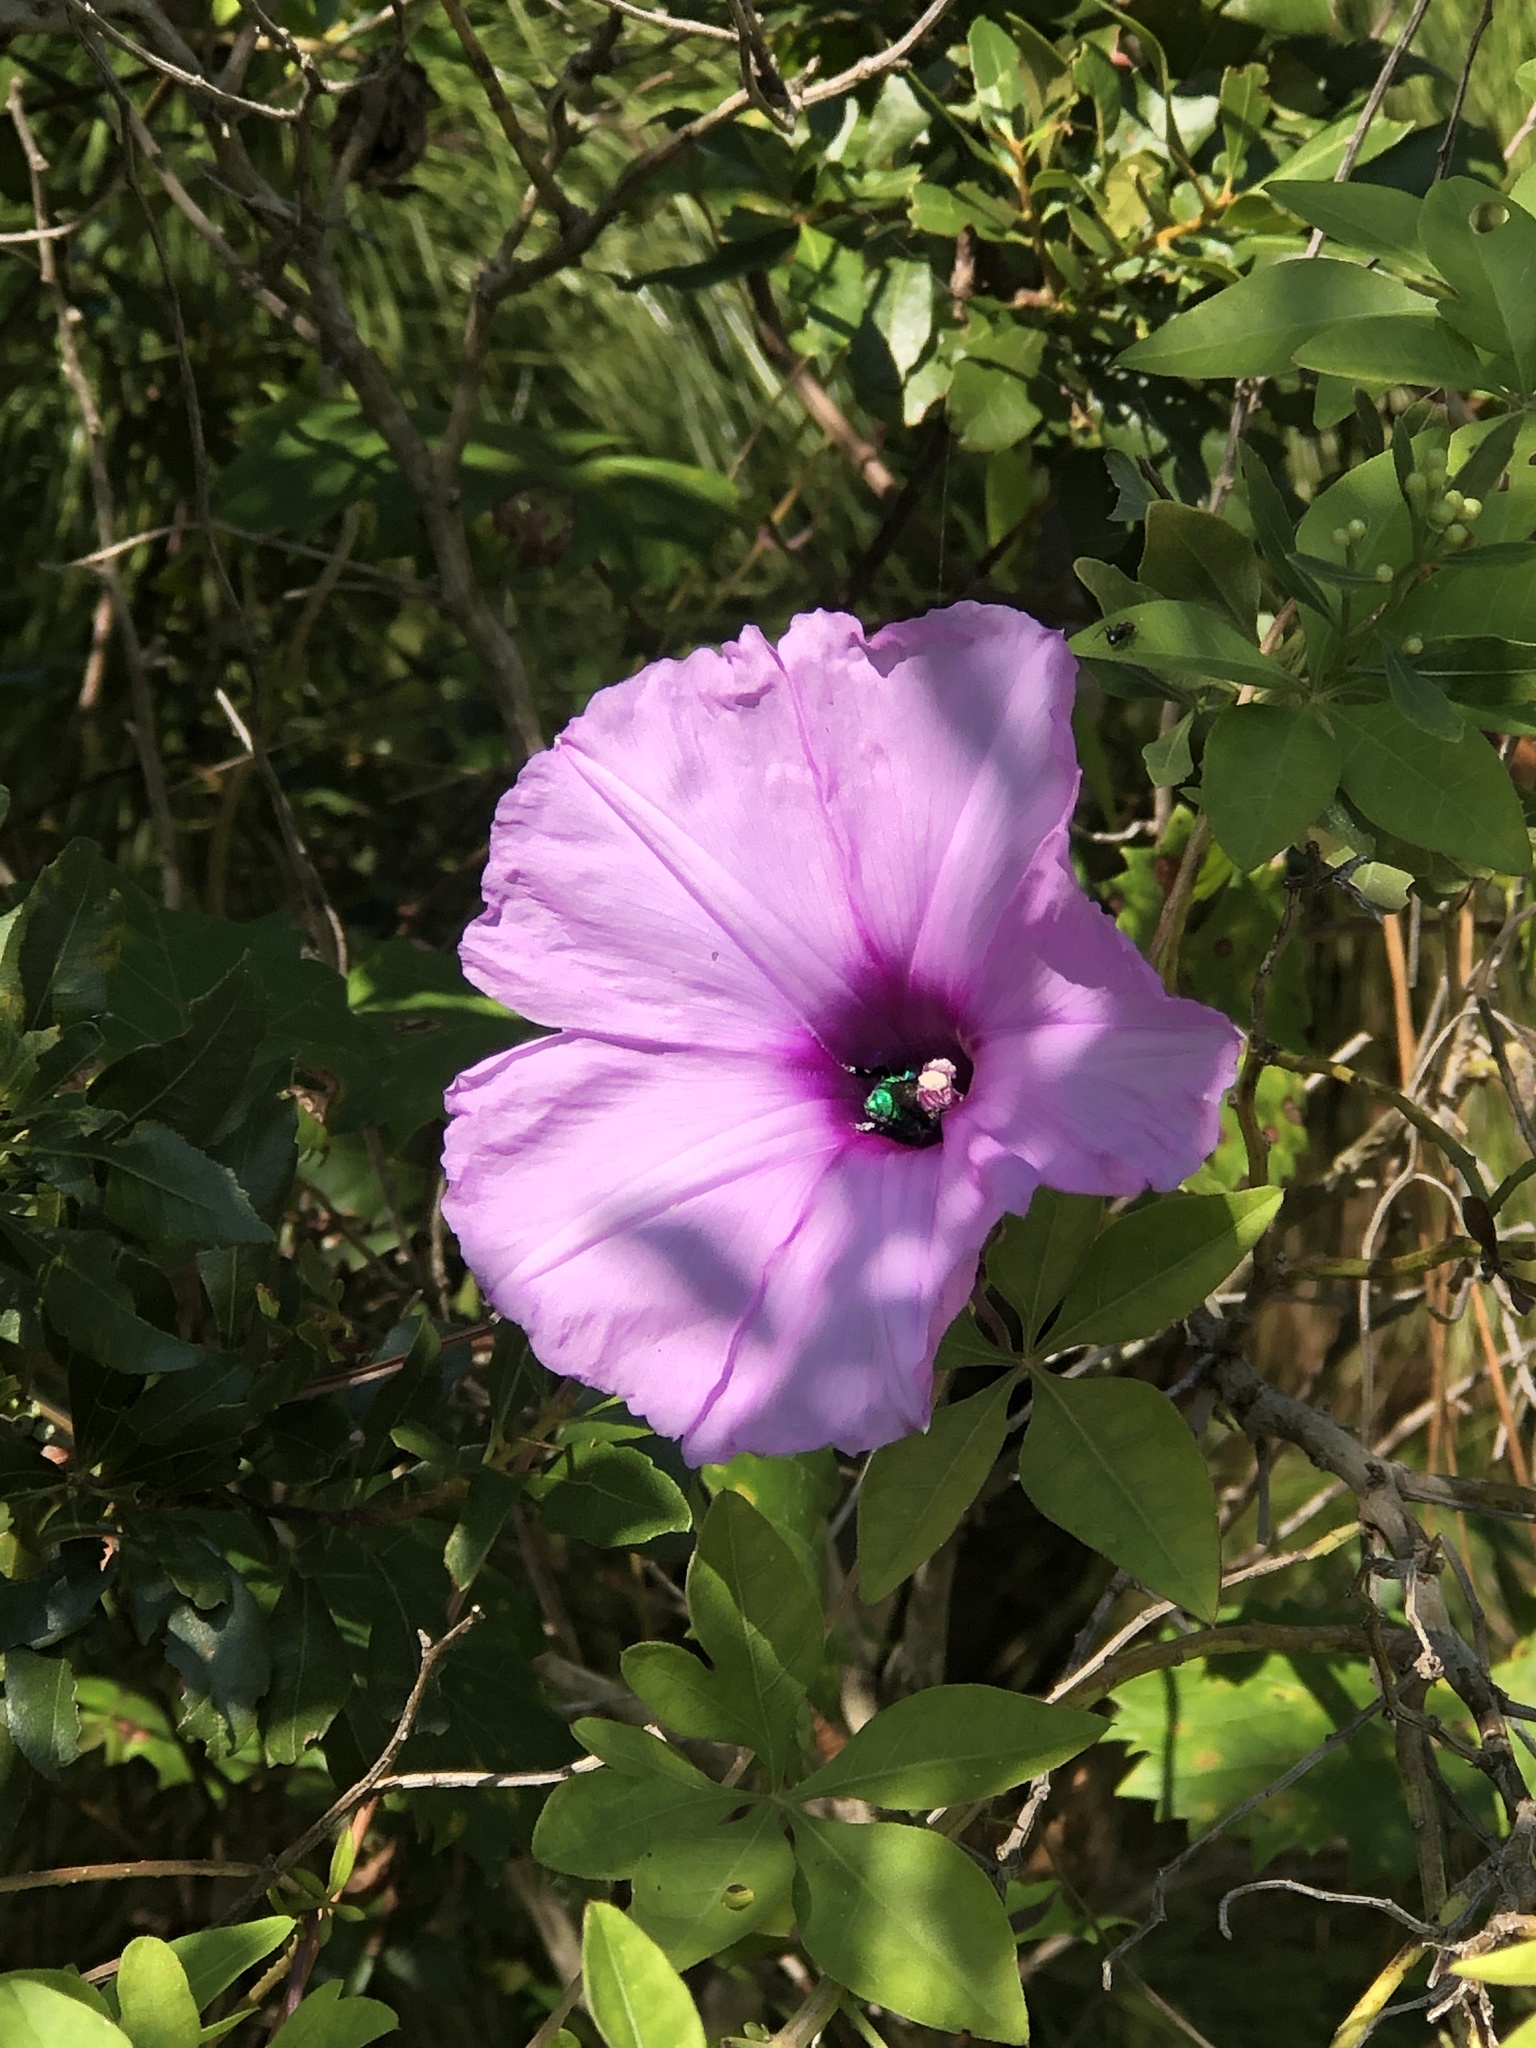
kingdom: Plantae
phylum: Tracheophyta
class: Magnoliopsida
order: Solanales
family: Convolvulaceae
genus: Ipomoea
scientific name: Ipomoea cairica
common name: Mile a minute vine
